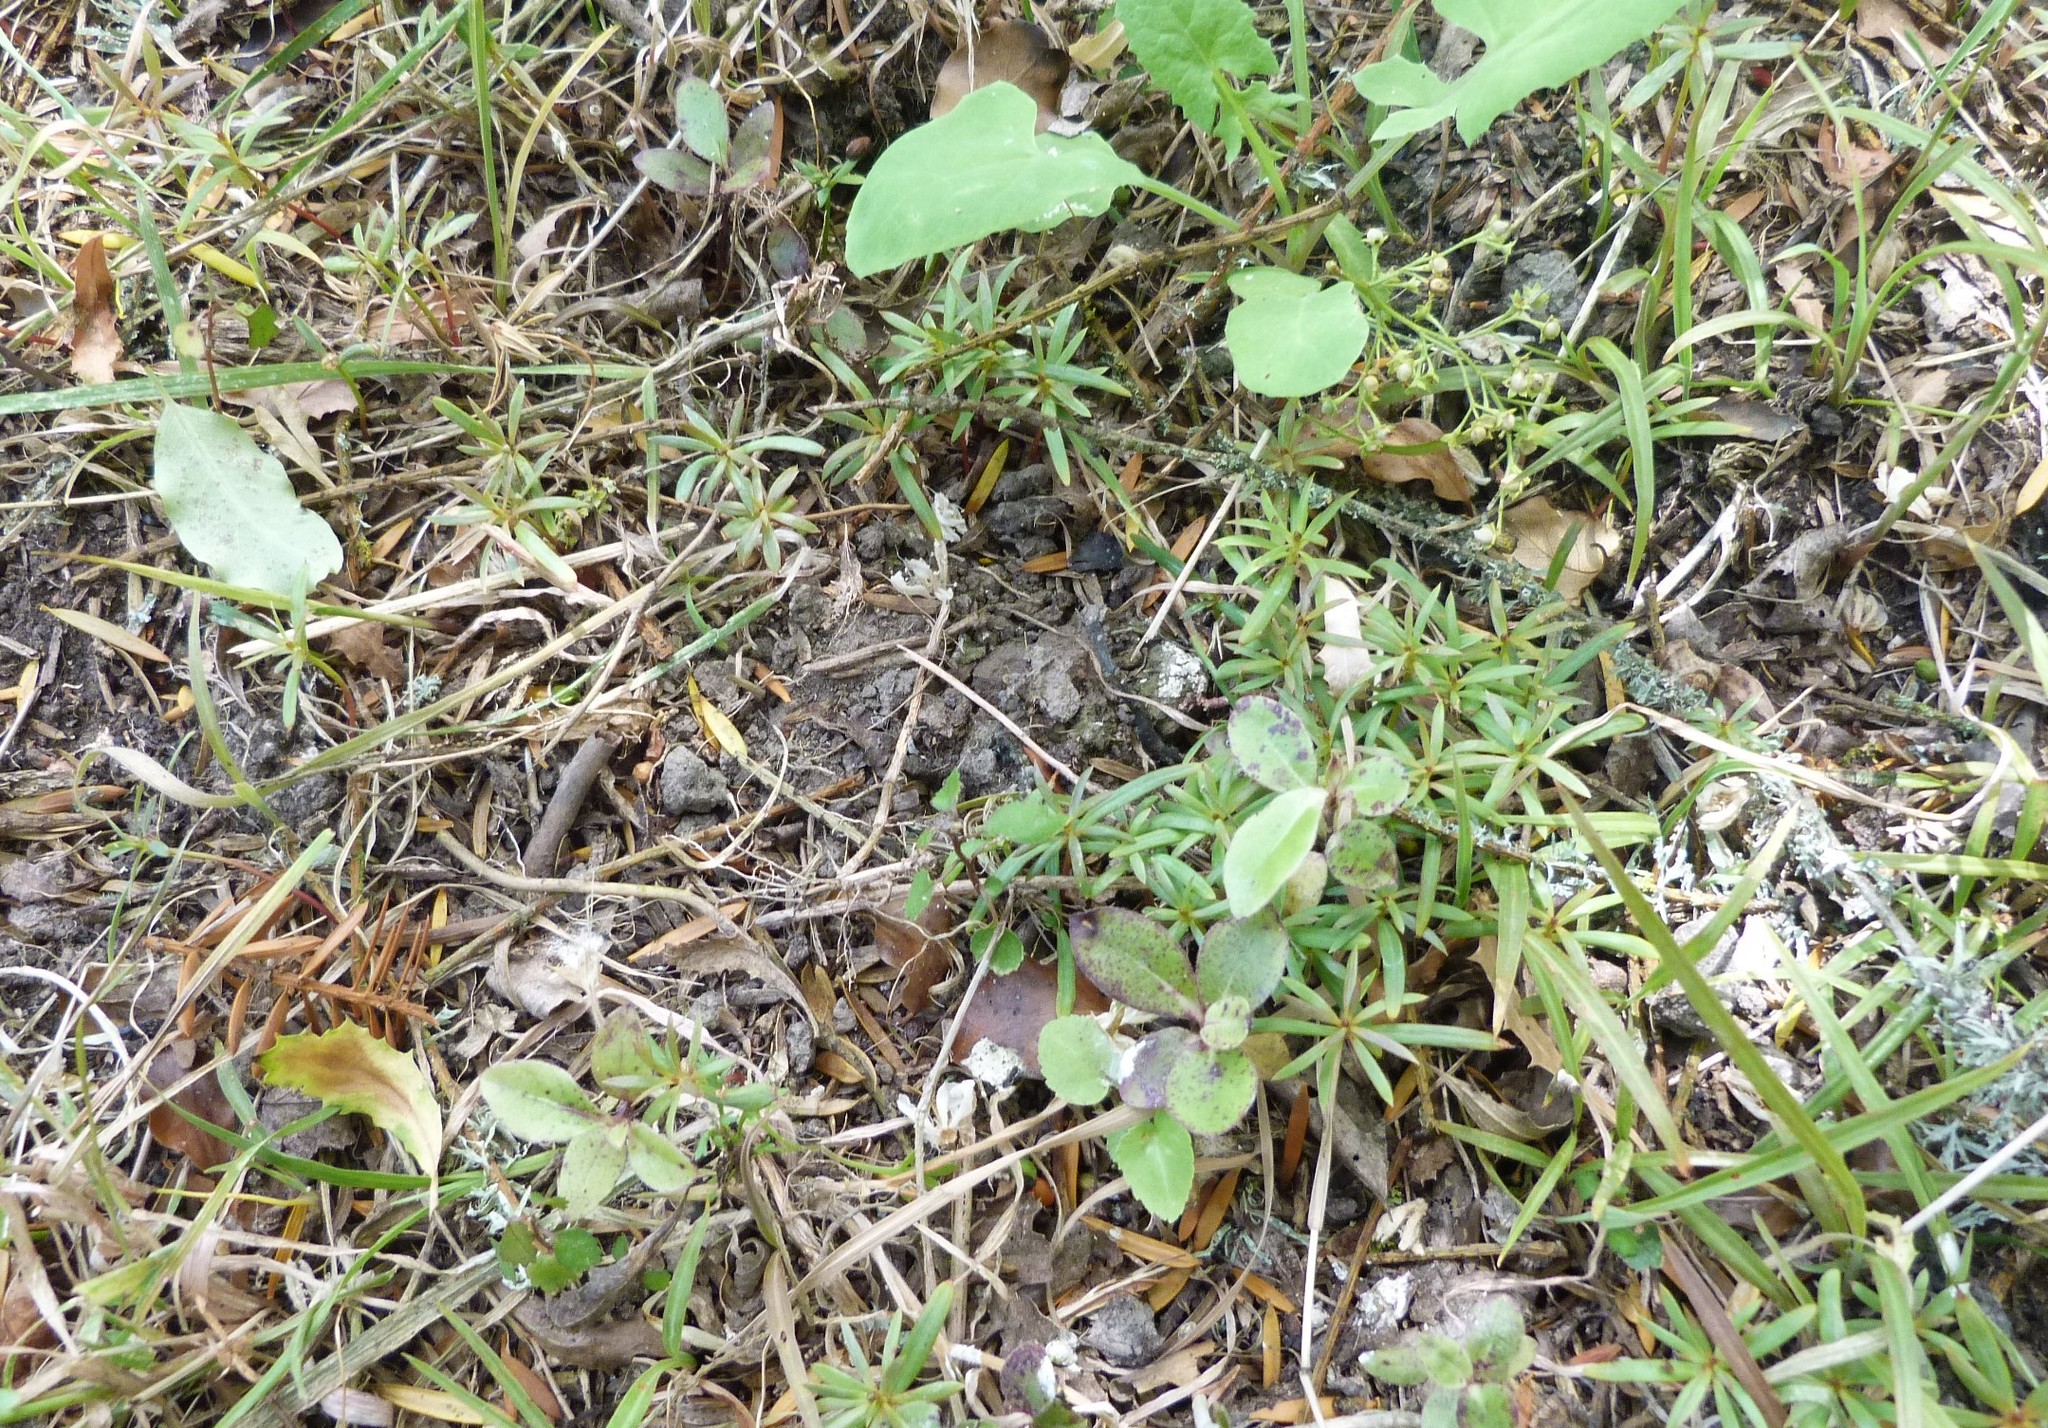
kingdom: Plantae
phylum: Tracheophyta
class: Pinopsida
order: Pinales
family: Podocarpaceae
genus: Podocarpus
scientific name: Podocarpus totara
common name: Totara
